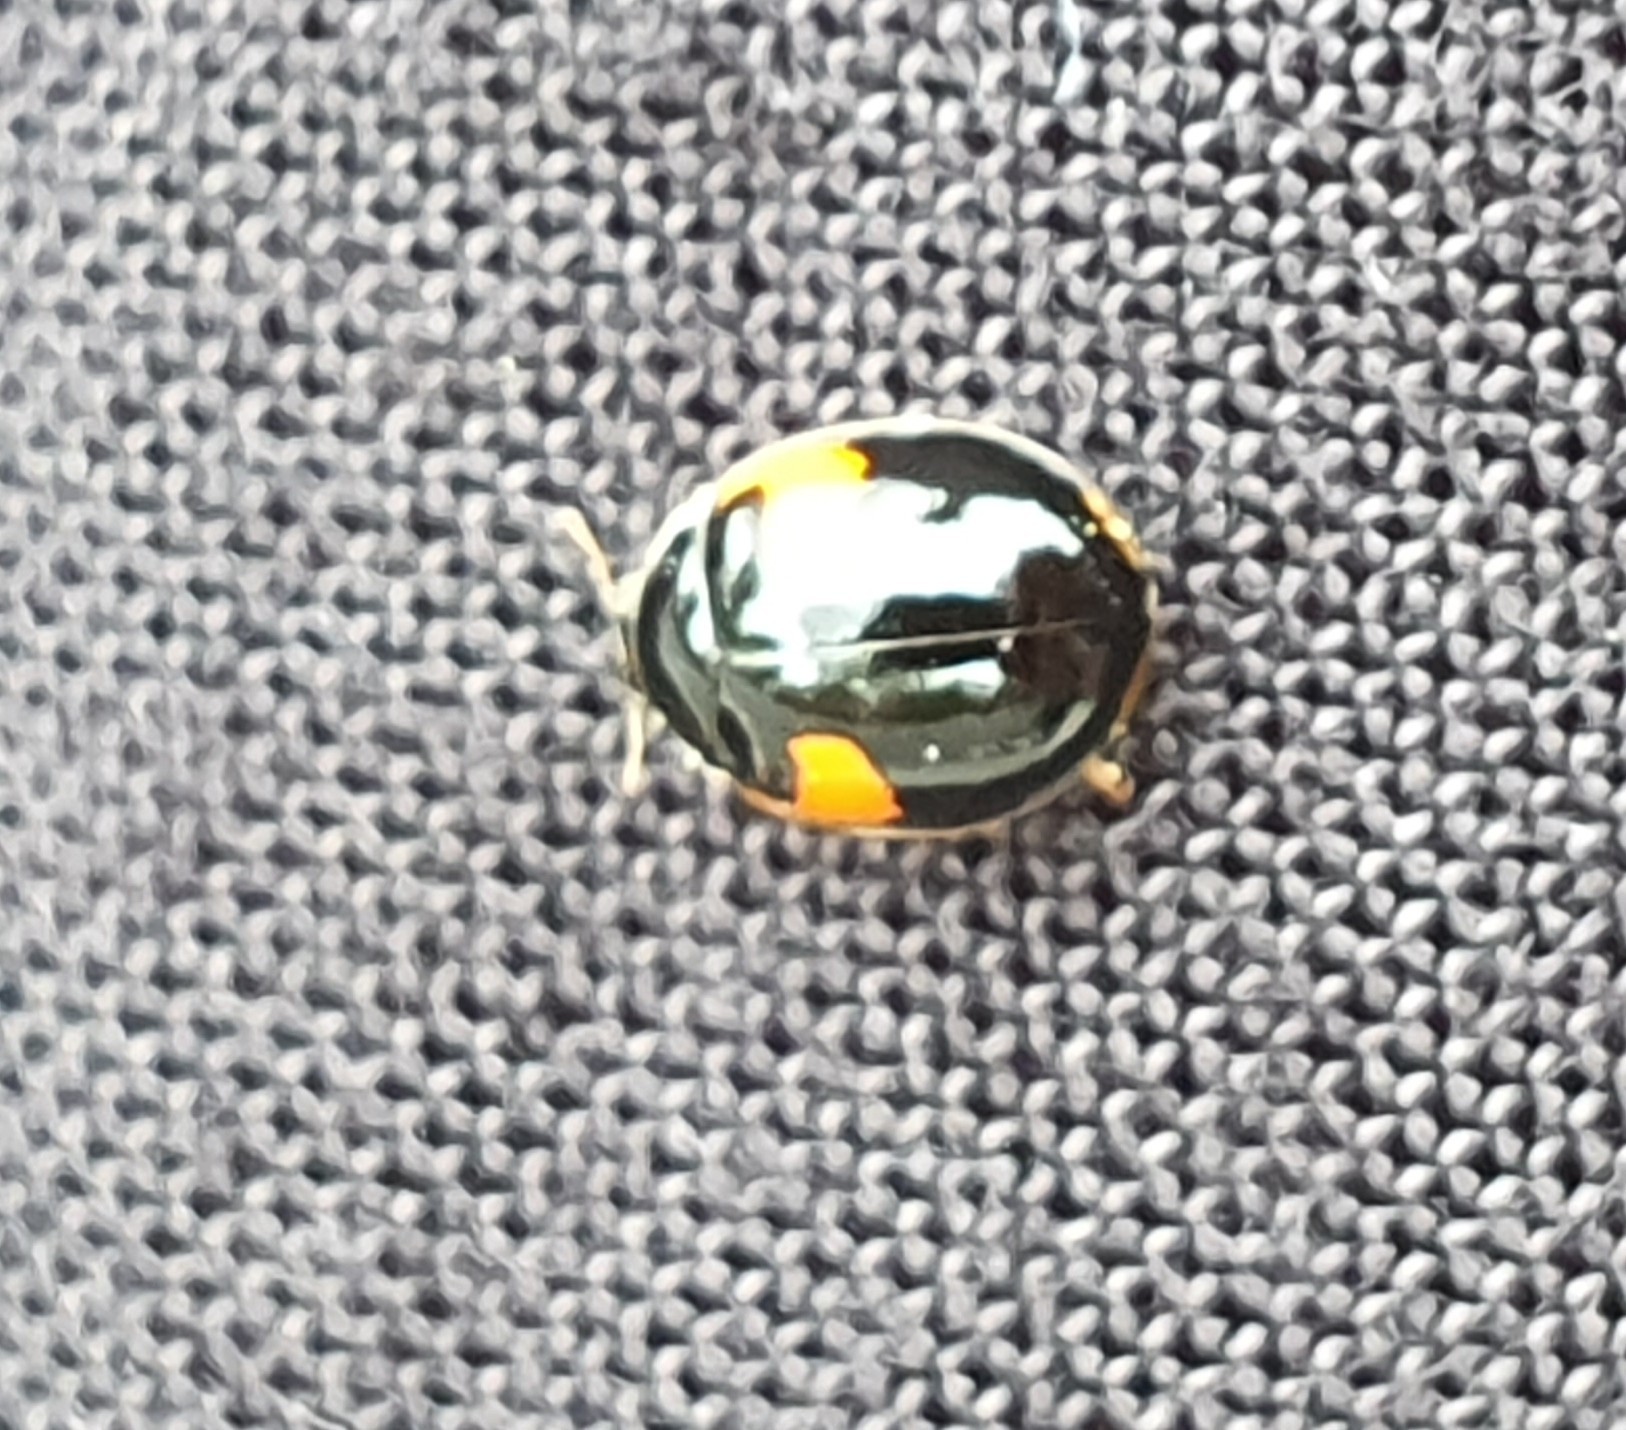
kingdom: Animalia
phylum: Arthropoda
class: Insecta
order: Coleoptera
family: Coccinellidae
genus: Adalia
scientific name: Adalia decempunctata
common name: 10-spot ladybird
